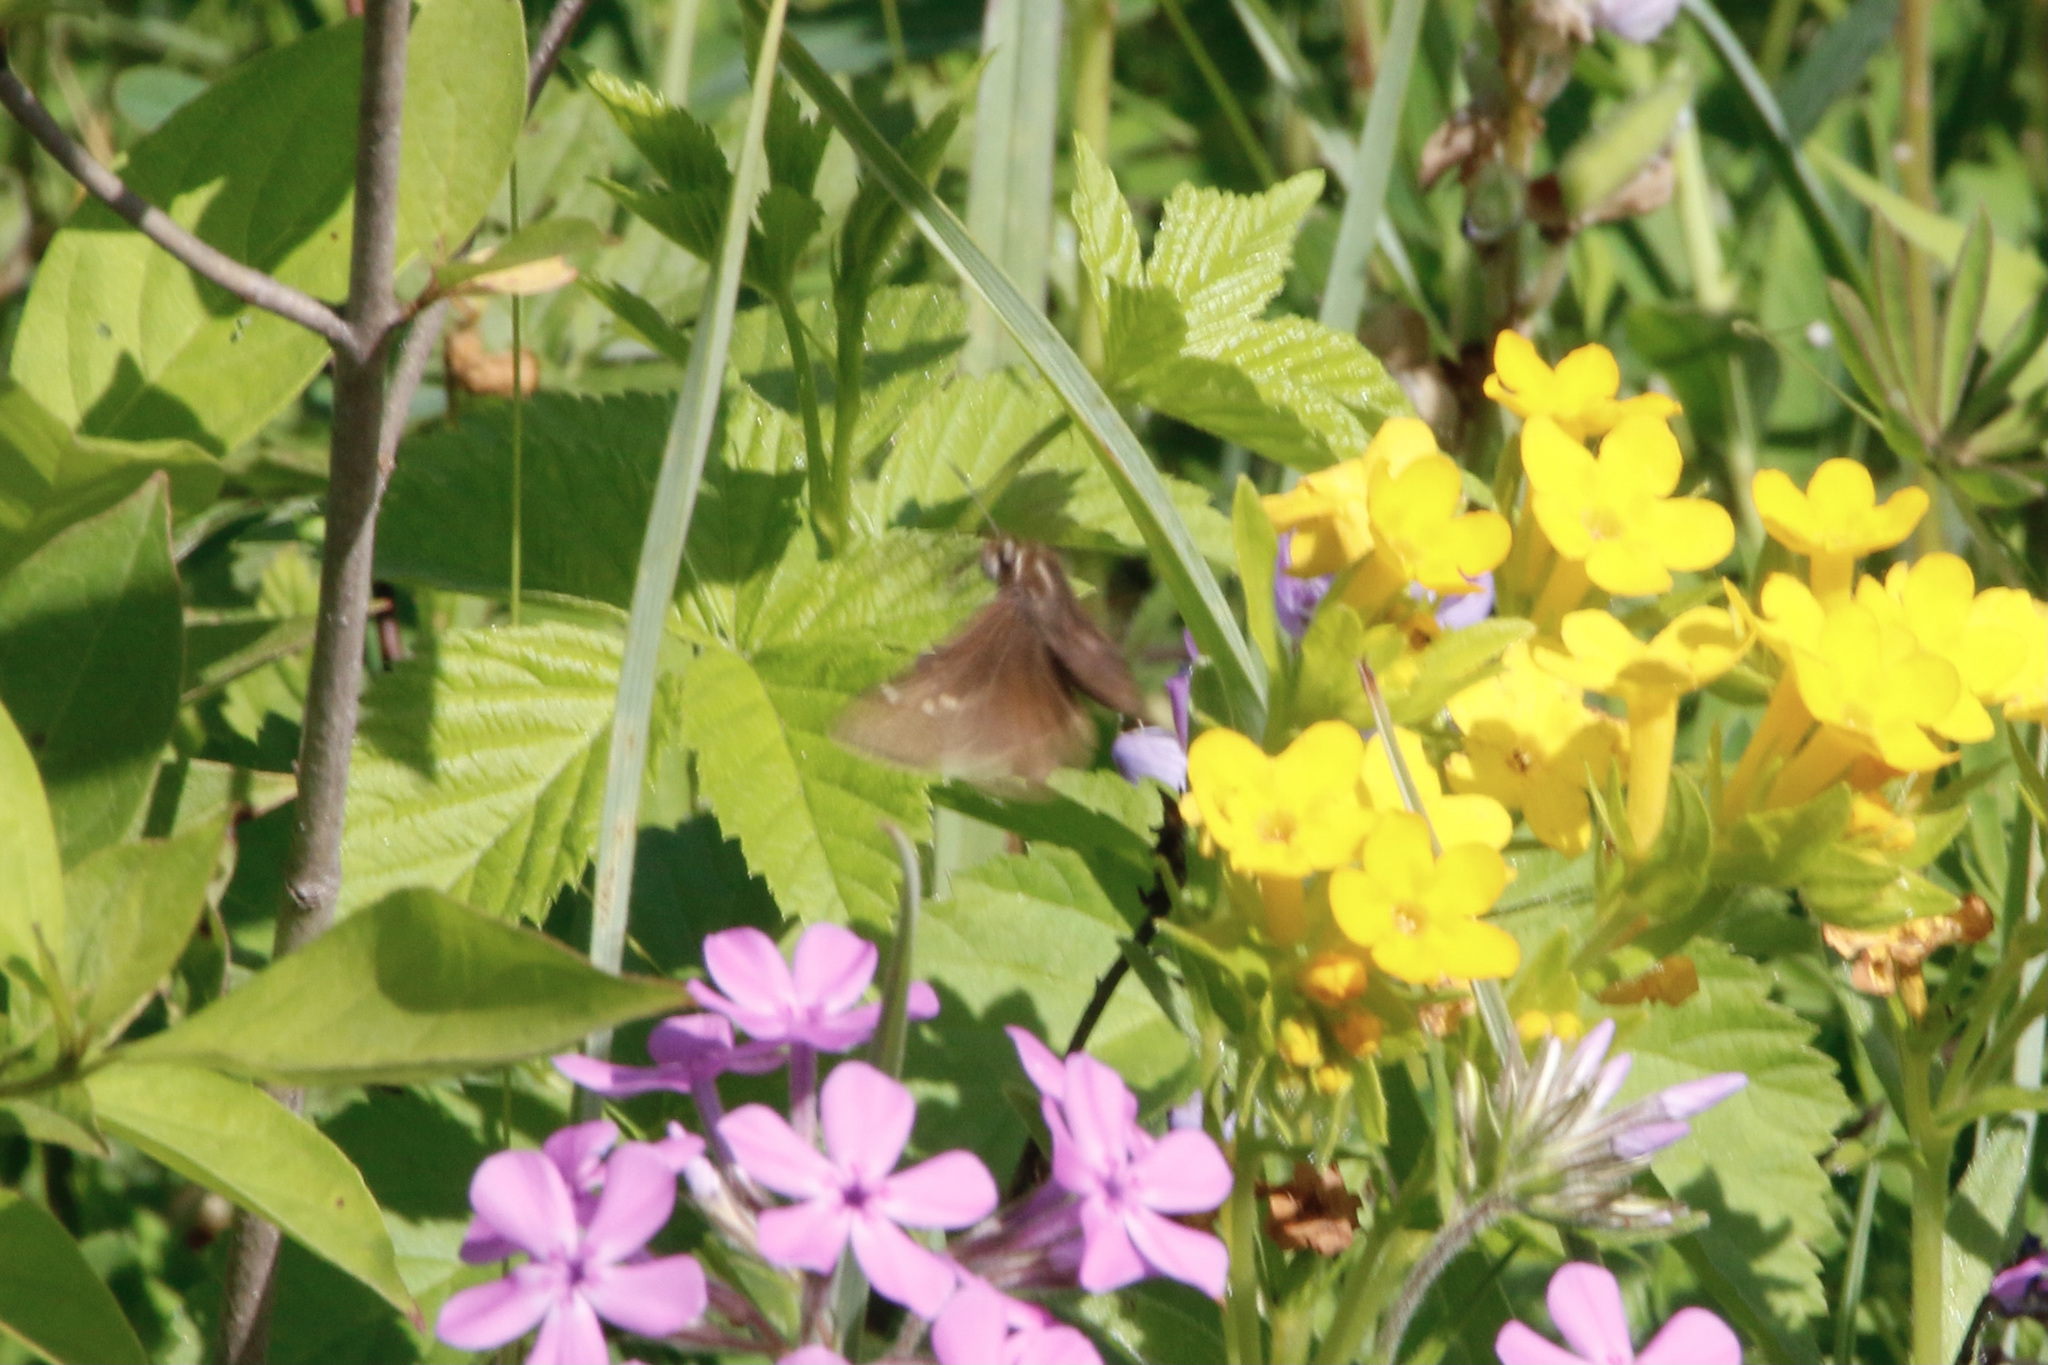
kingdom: Animalia
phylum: Arthropoda
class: Insecta
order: Lepidoptera
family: Hesperiidae
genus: Atrytonopsis
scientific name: Atrytonopsis hianna
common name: Dusted skipper
